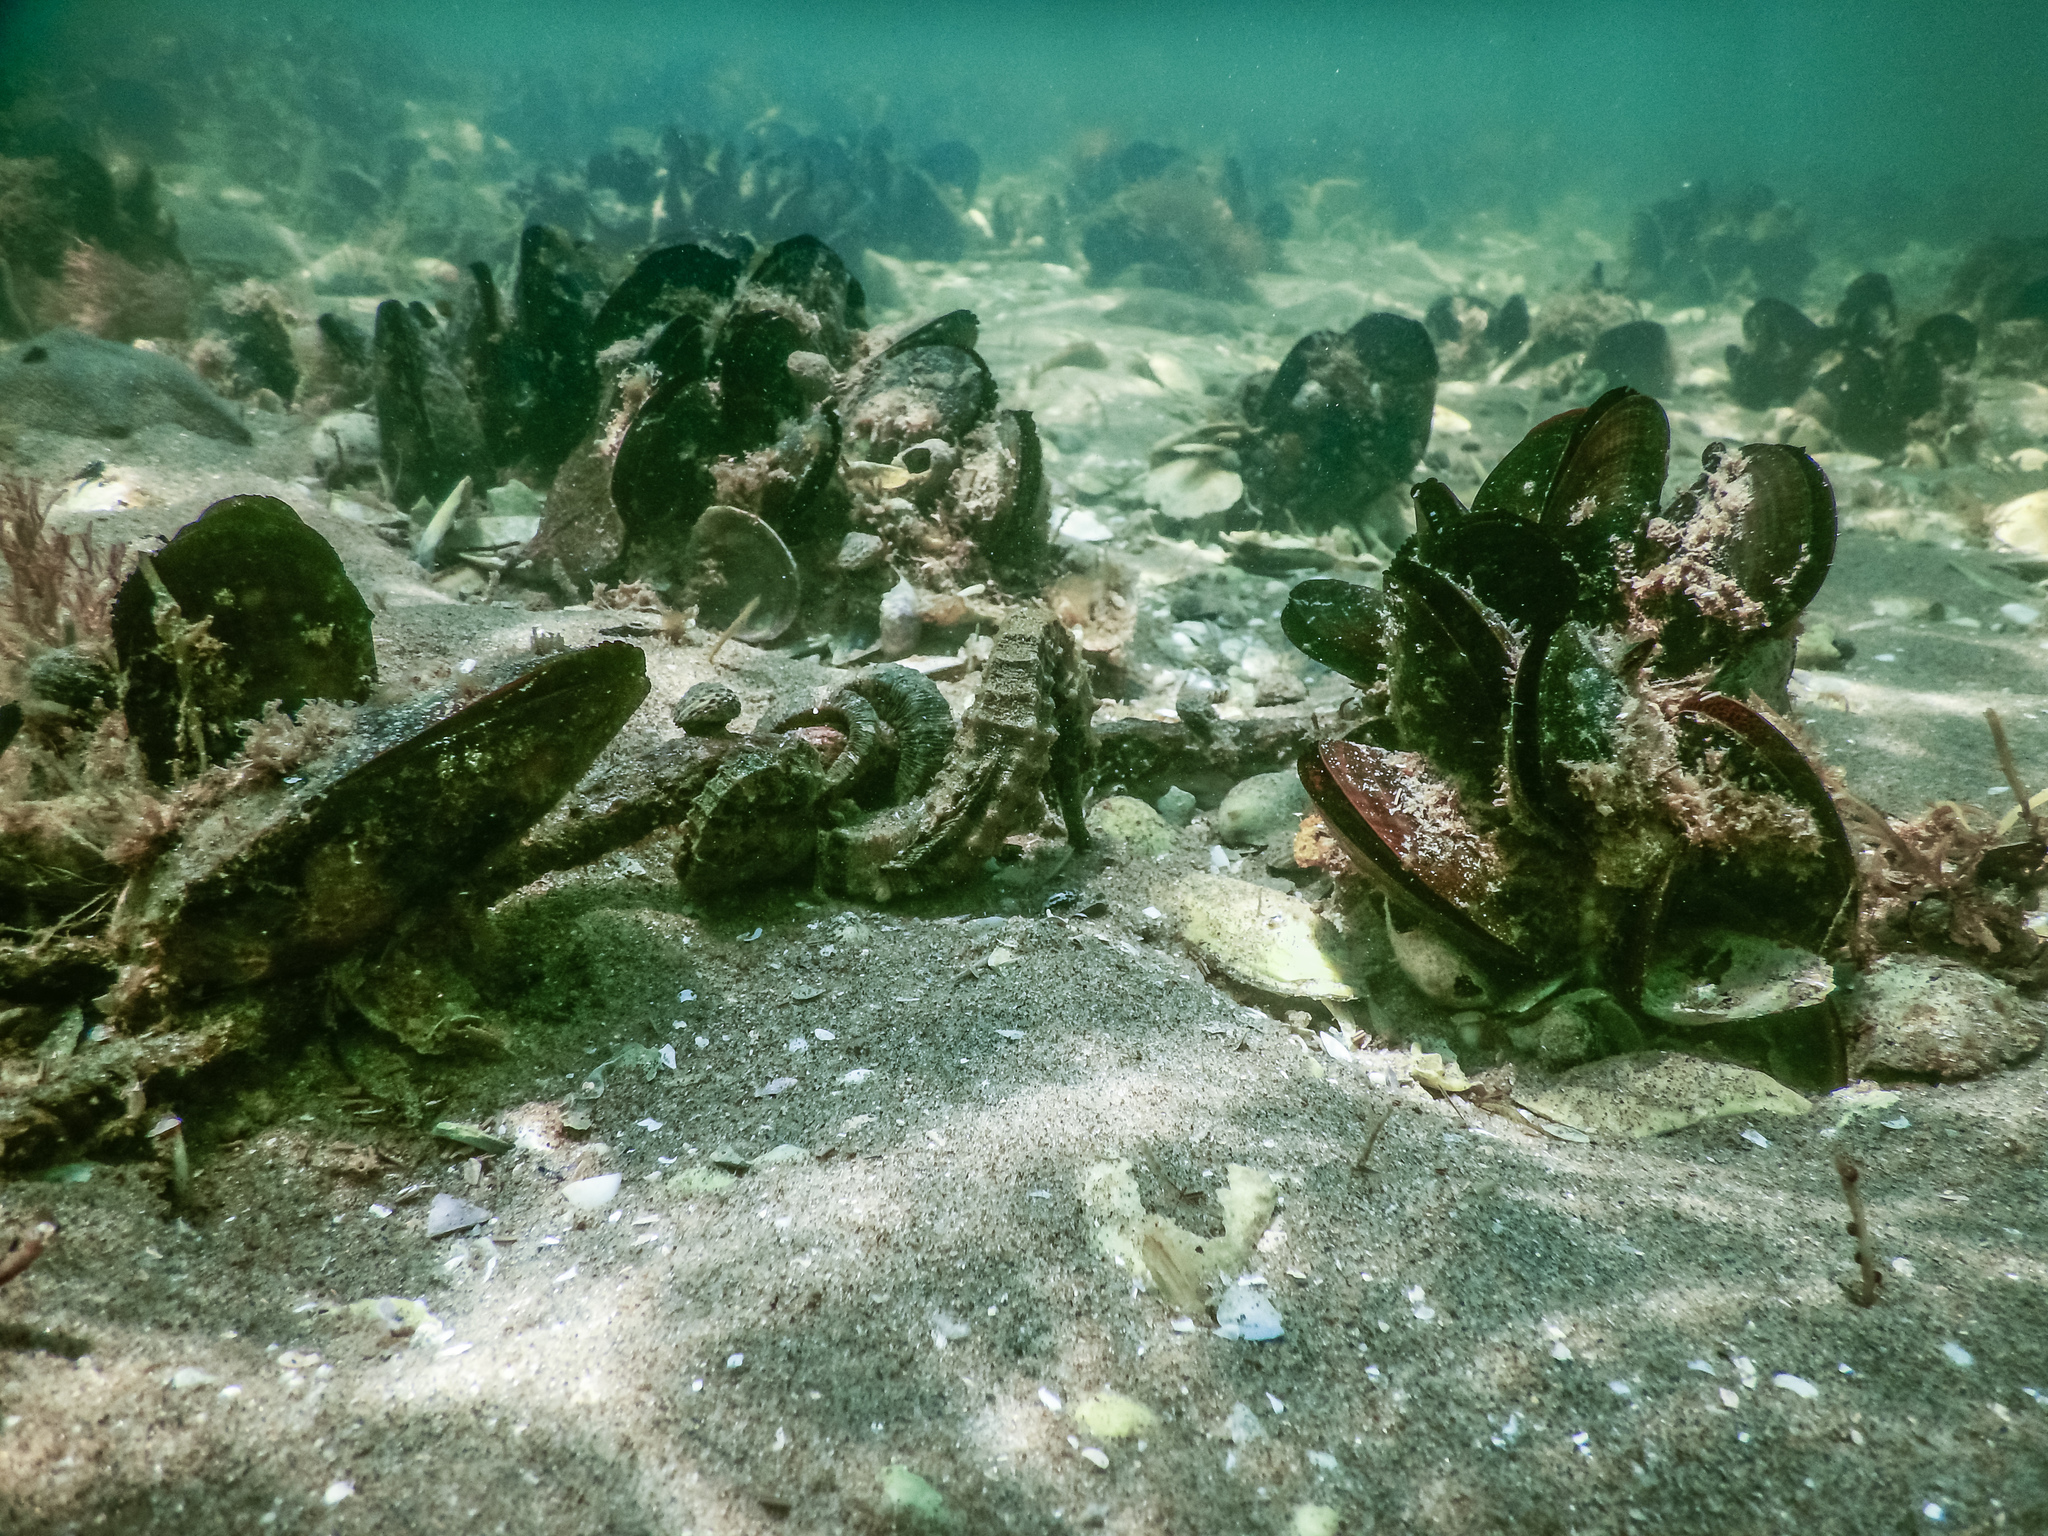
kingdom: Animalia
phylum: Chordata
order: Syngnathiformes
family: Syngnathidae
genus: Hippocampus
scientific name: Hippocampus abdominalis
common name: Big-belly seahorse
